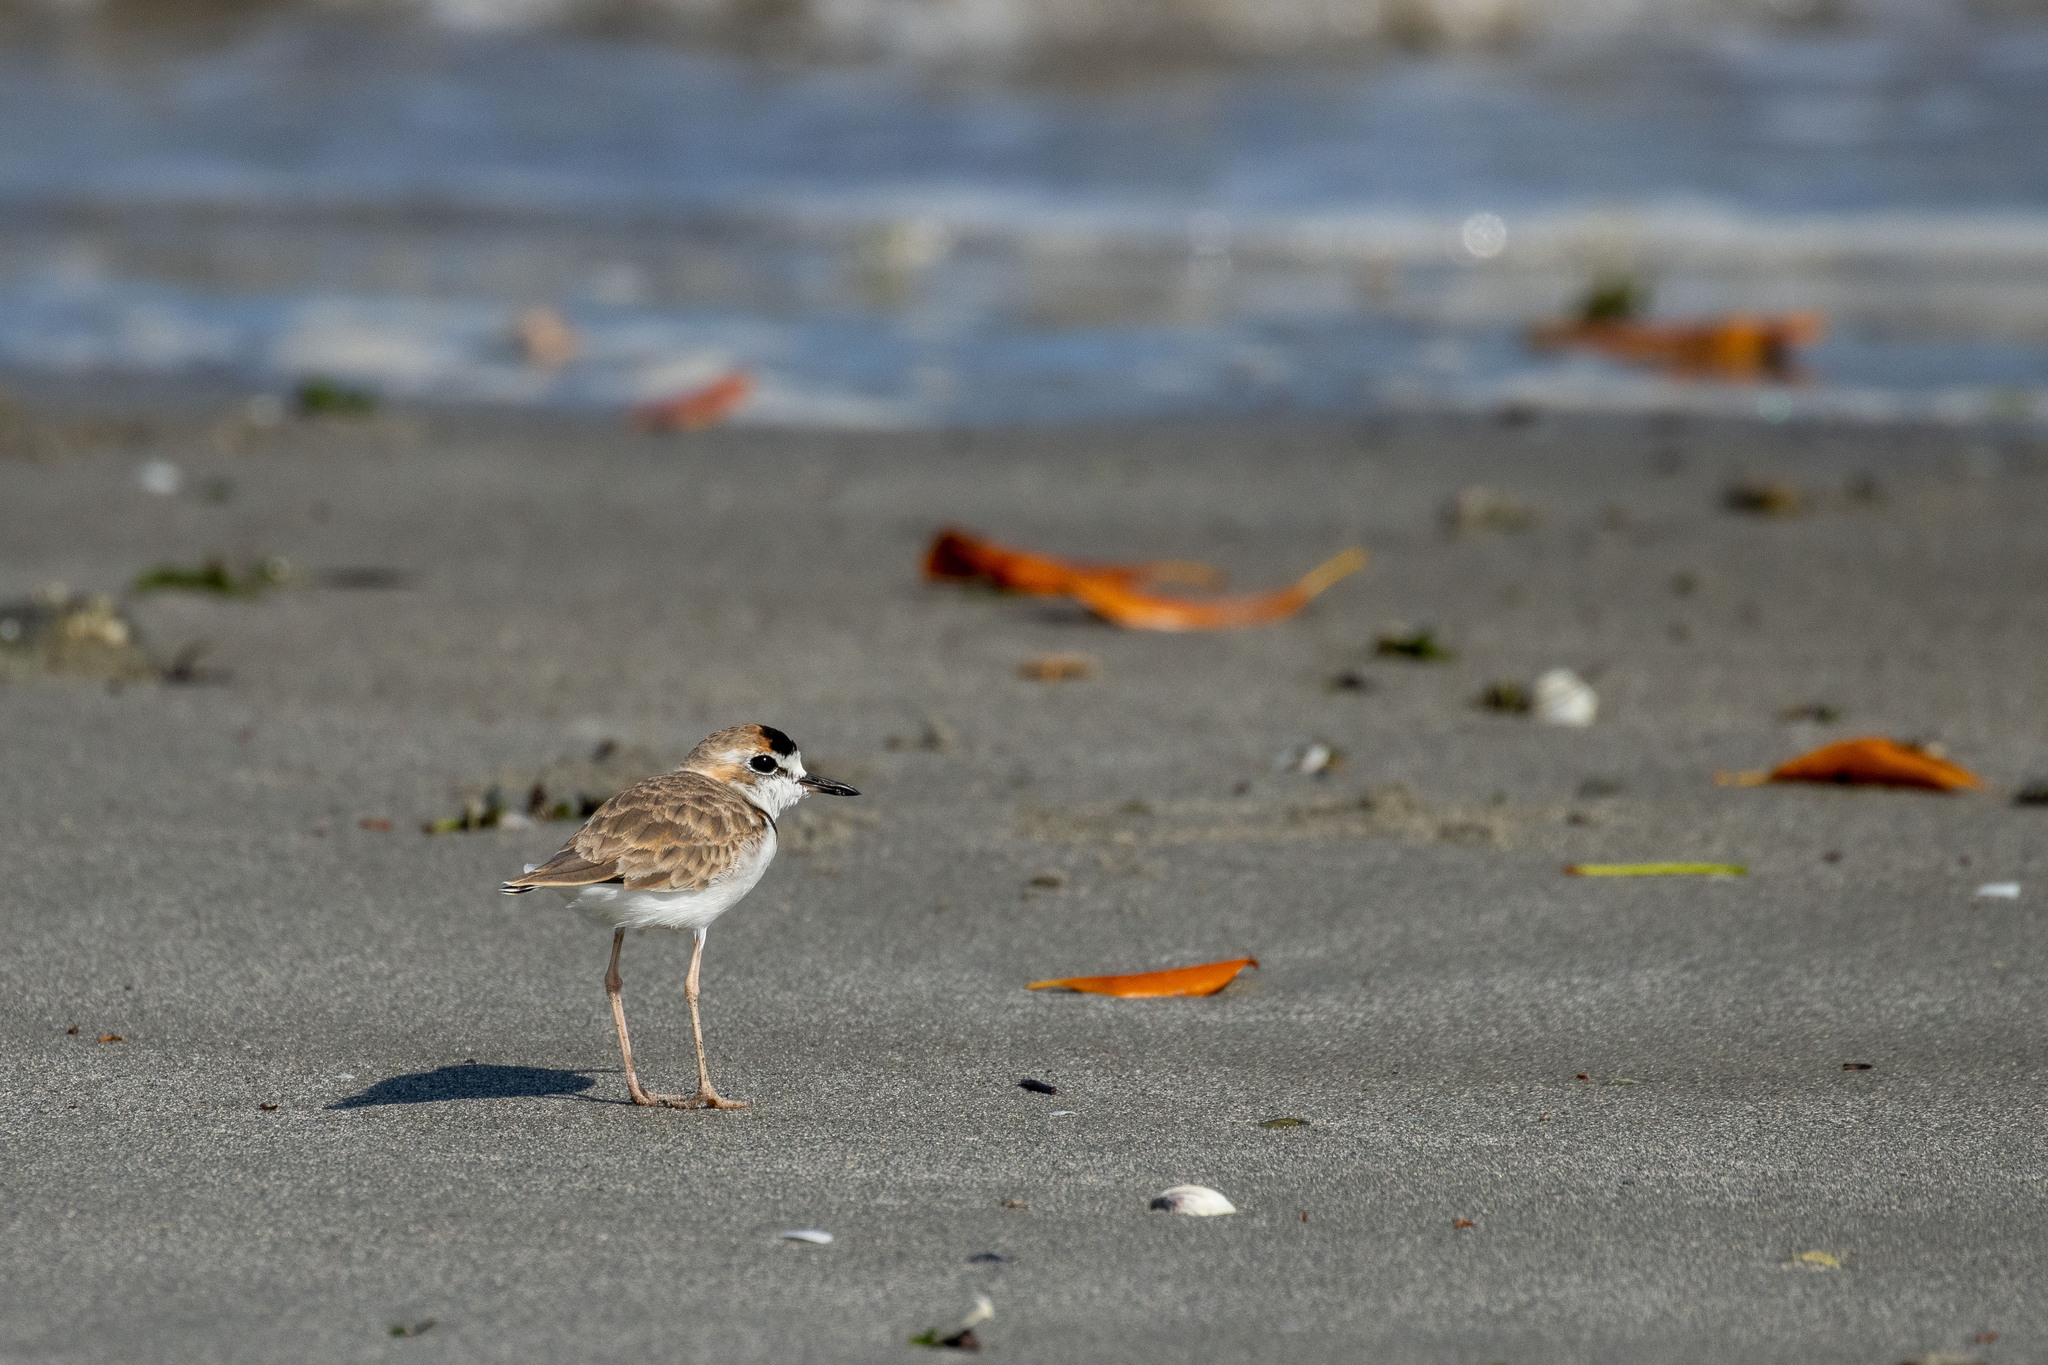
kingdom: Animalia
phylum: Chordata
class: Aves
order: Charadriiformes
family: Charadriidae
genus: Anarhynchus
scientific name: Anarhynchus
